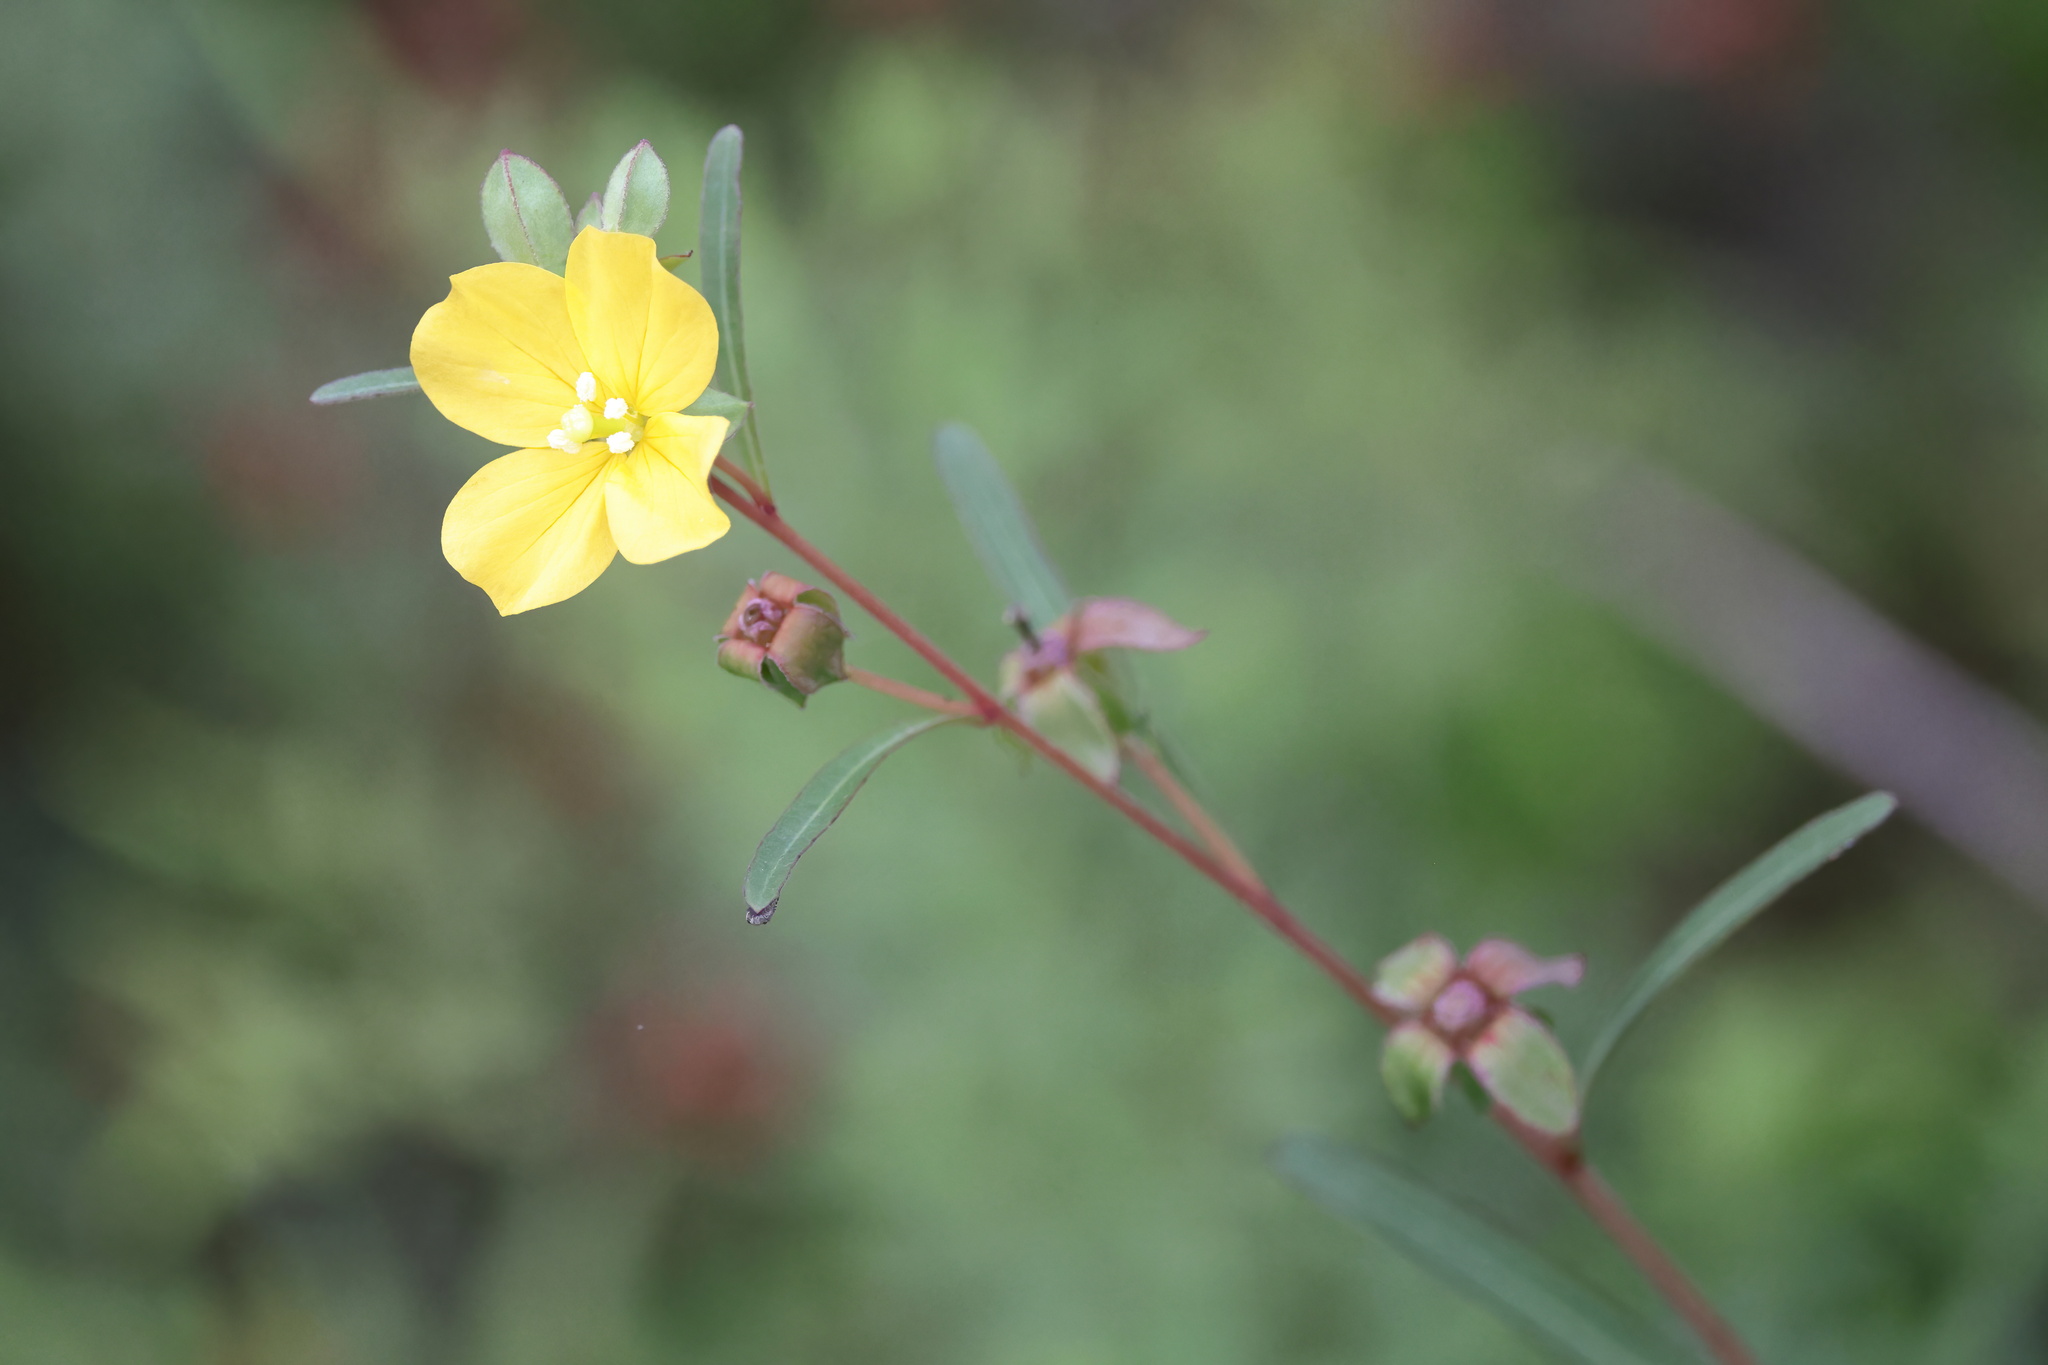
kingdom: Plantae
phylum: Tracheophyta
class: Magnoliopsida
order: Myrtales
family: Onagraceae
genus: Ludwigia
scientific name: Ludwigia maritima
